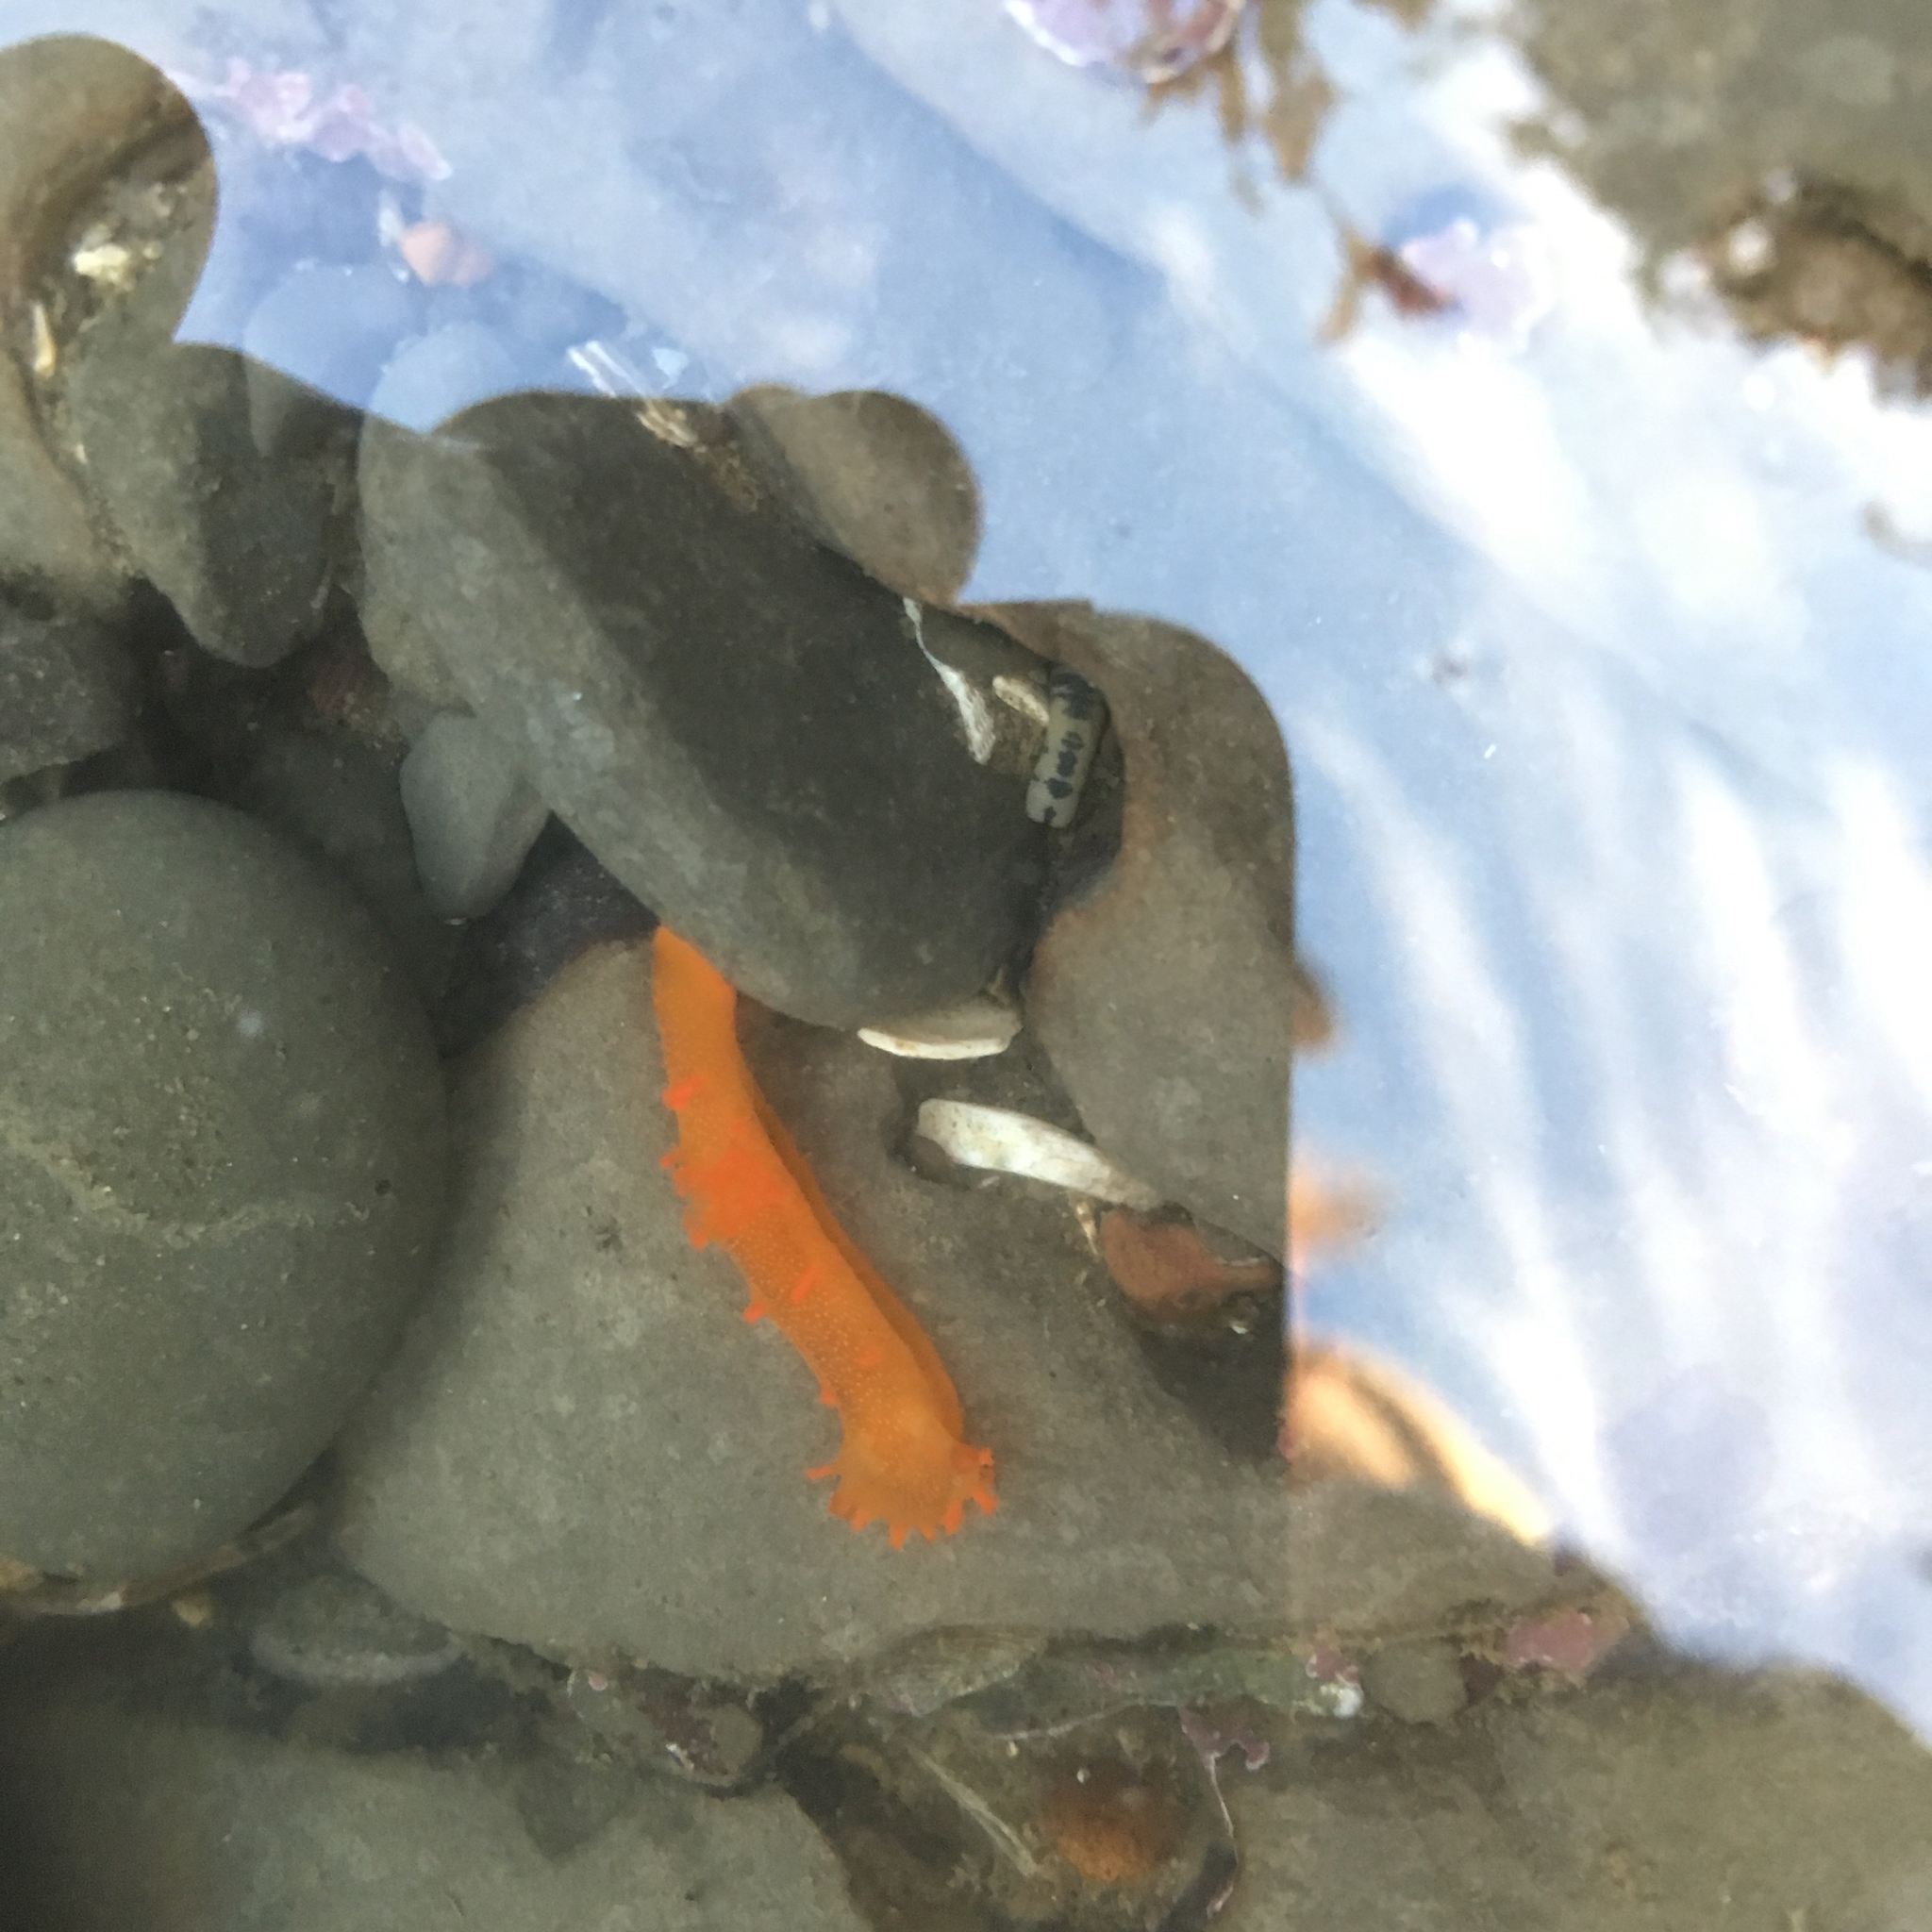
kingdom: Animalia
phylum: Mollusca
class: Gastropoda
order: Nudibranchia
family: Polyceridae
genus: Triopha
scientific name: Triopha maculata
